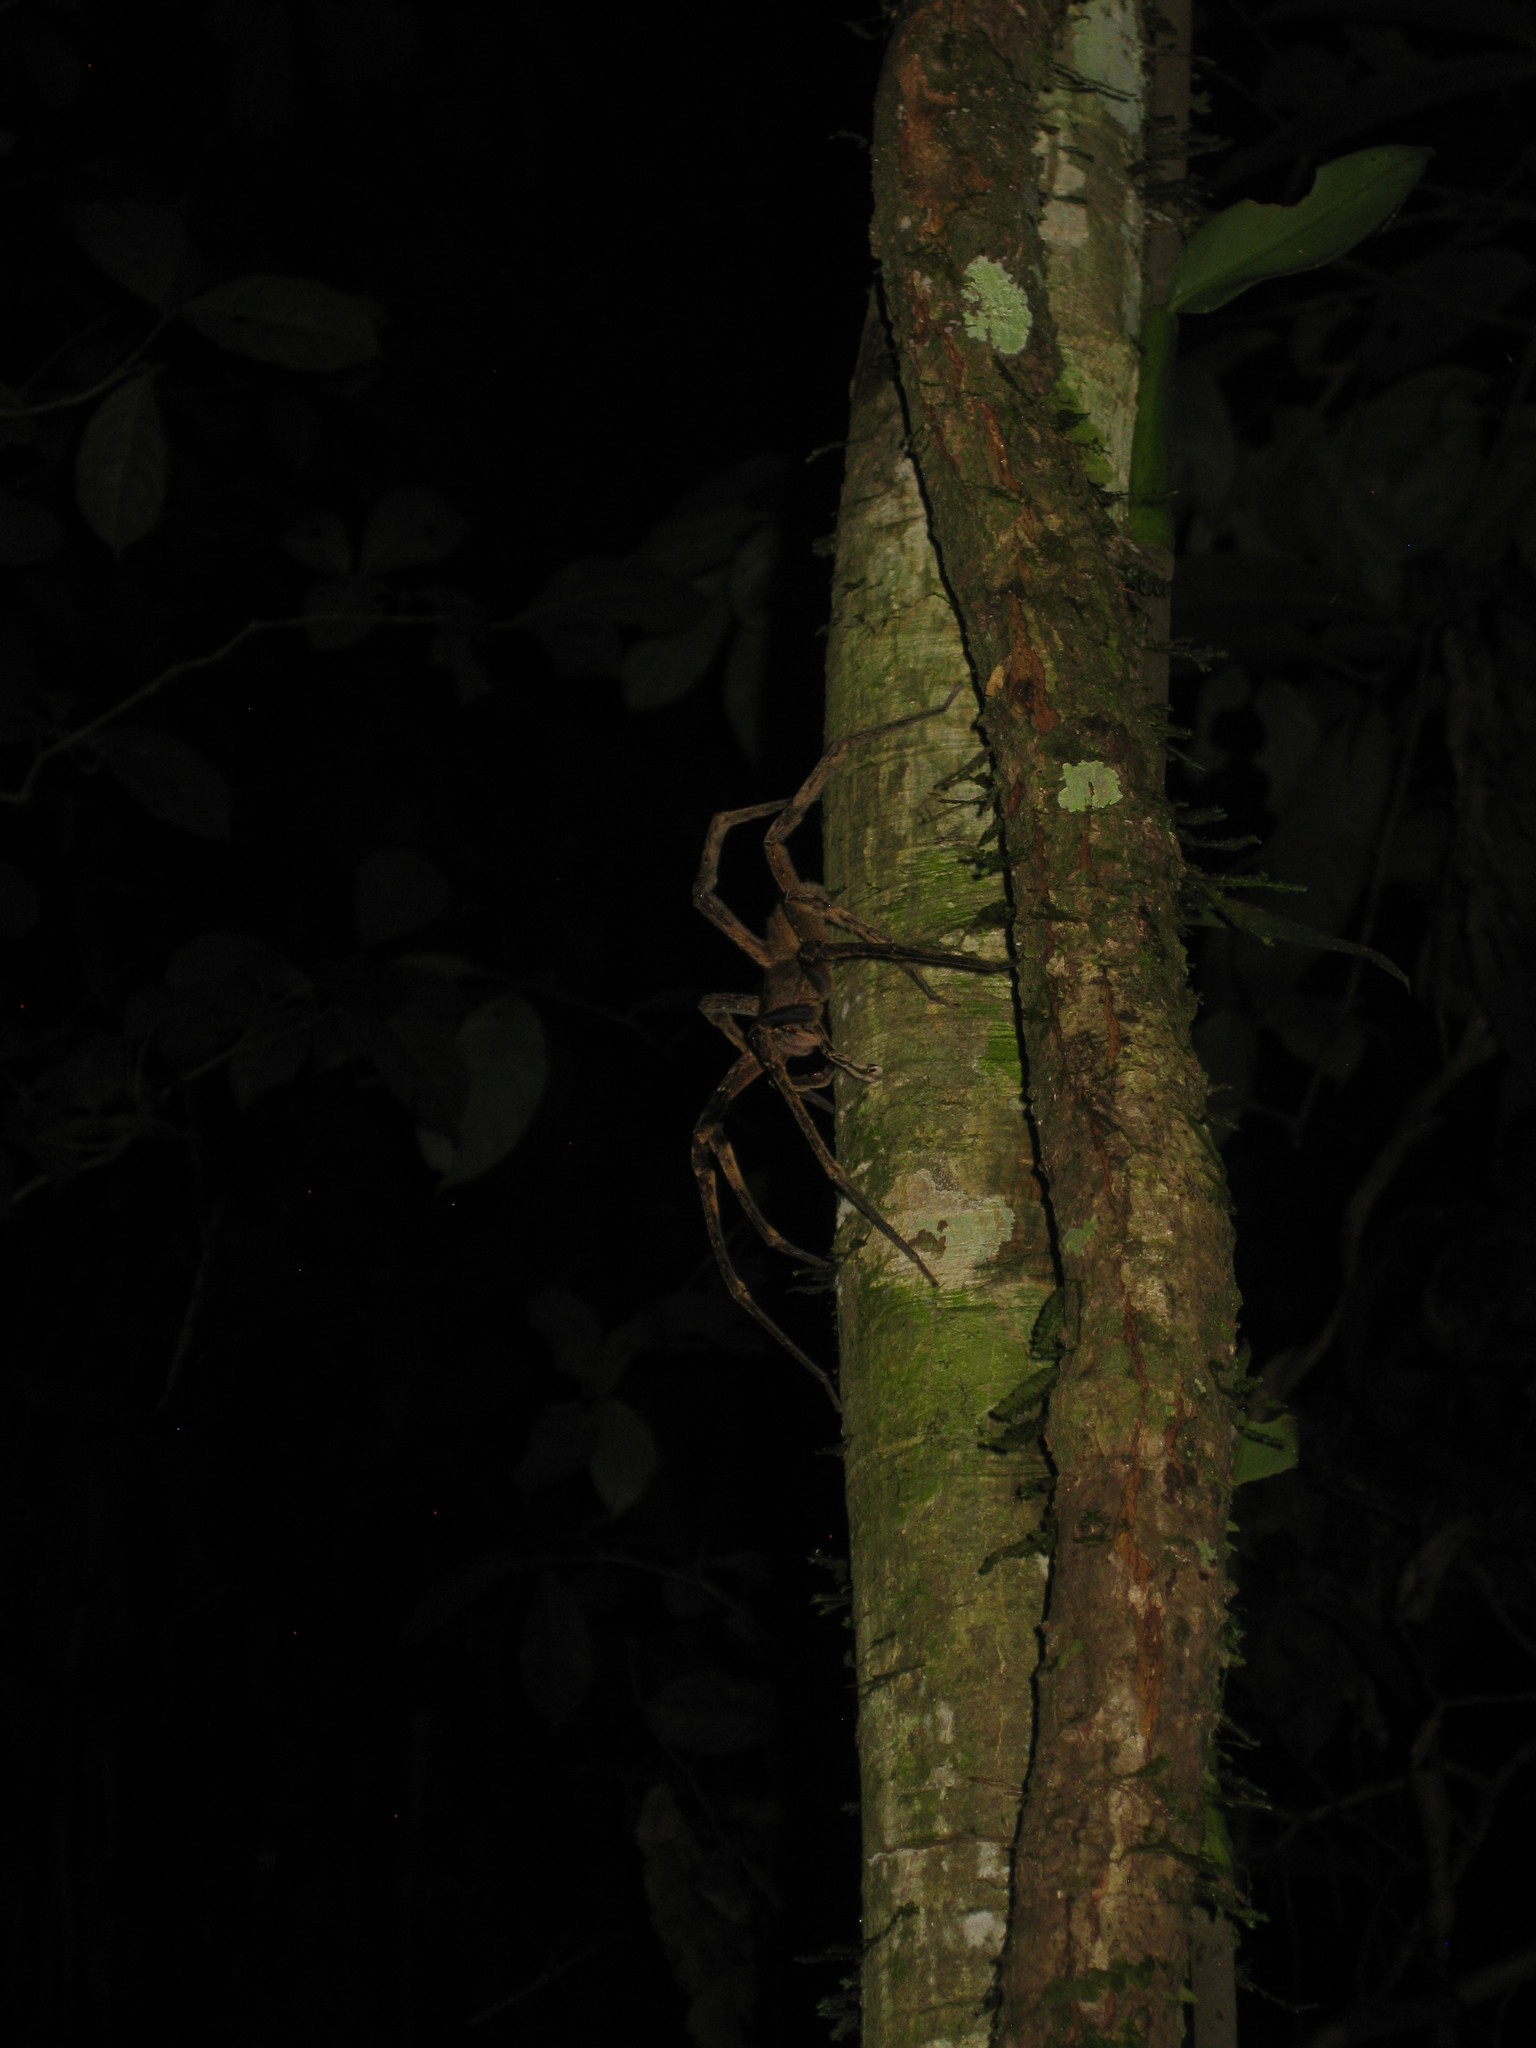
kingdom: Animalia
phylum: Arthropoda
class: Arachnida
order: Araneae
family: Ctenidae
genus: Phoneutria
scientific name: Phoneutria fera
